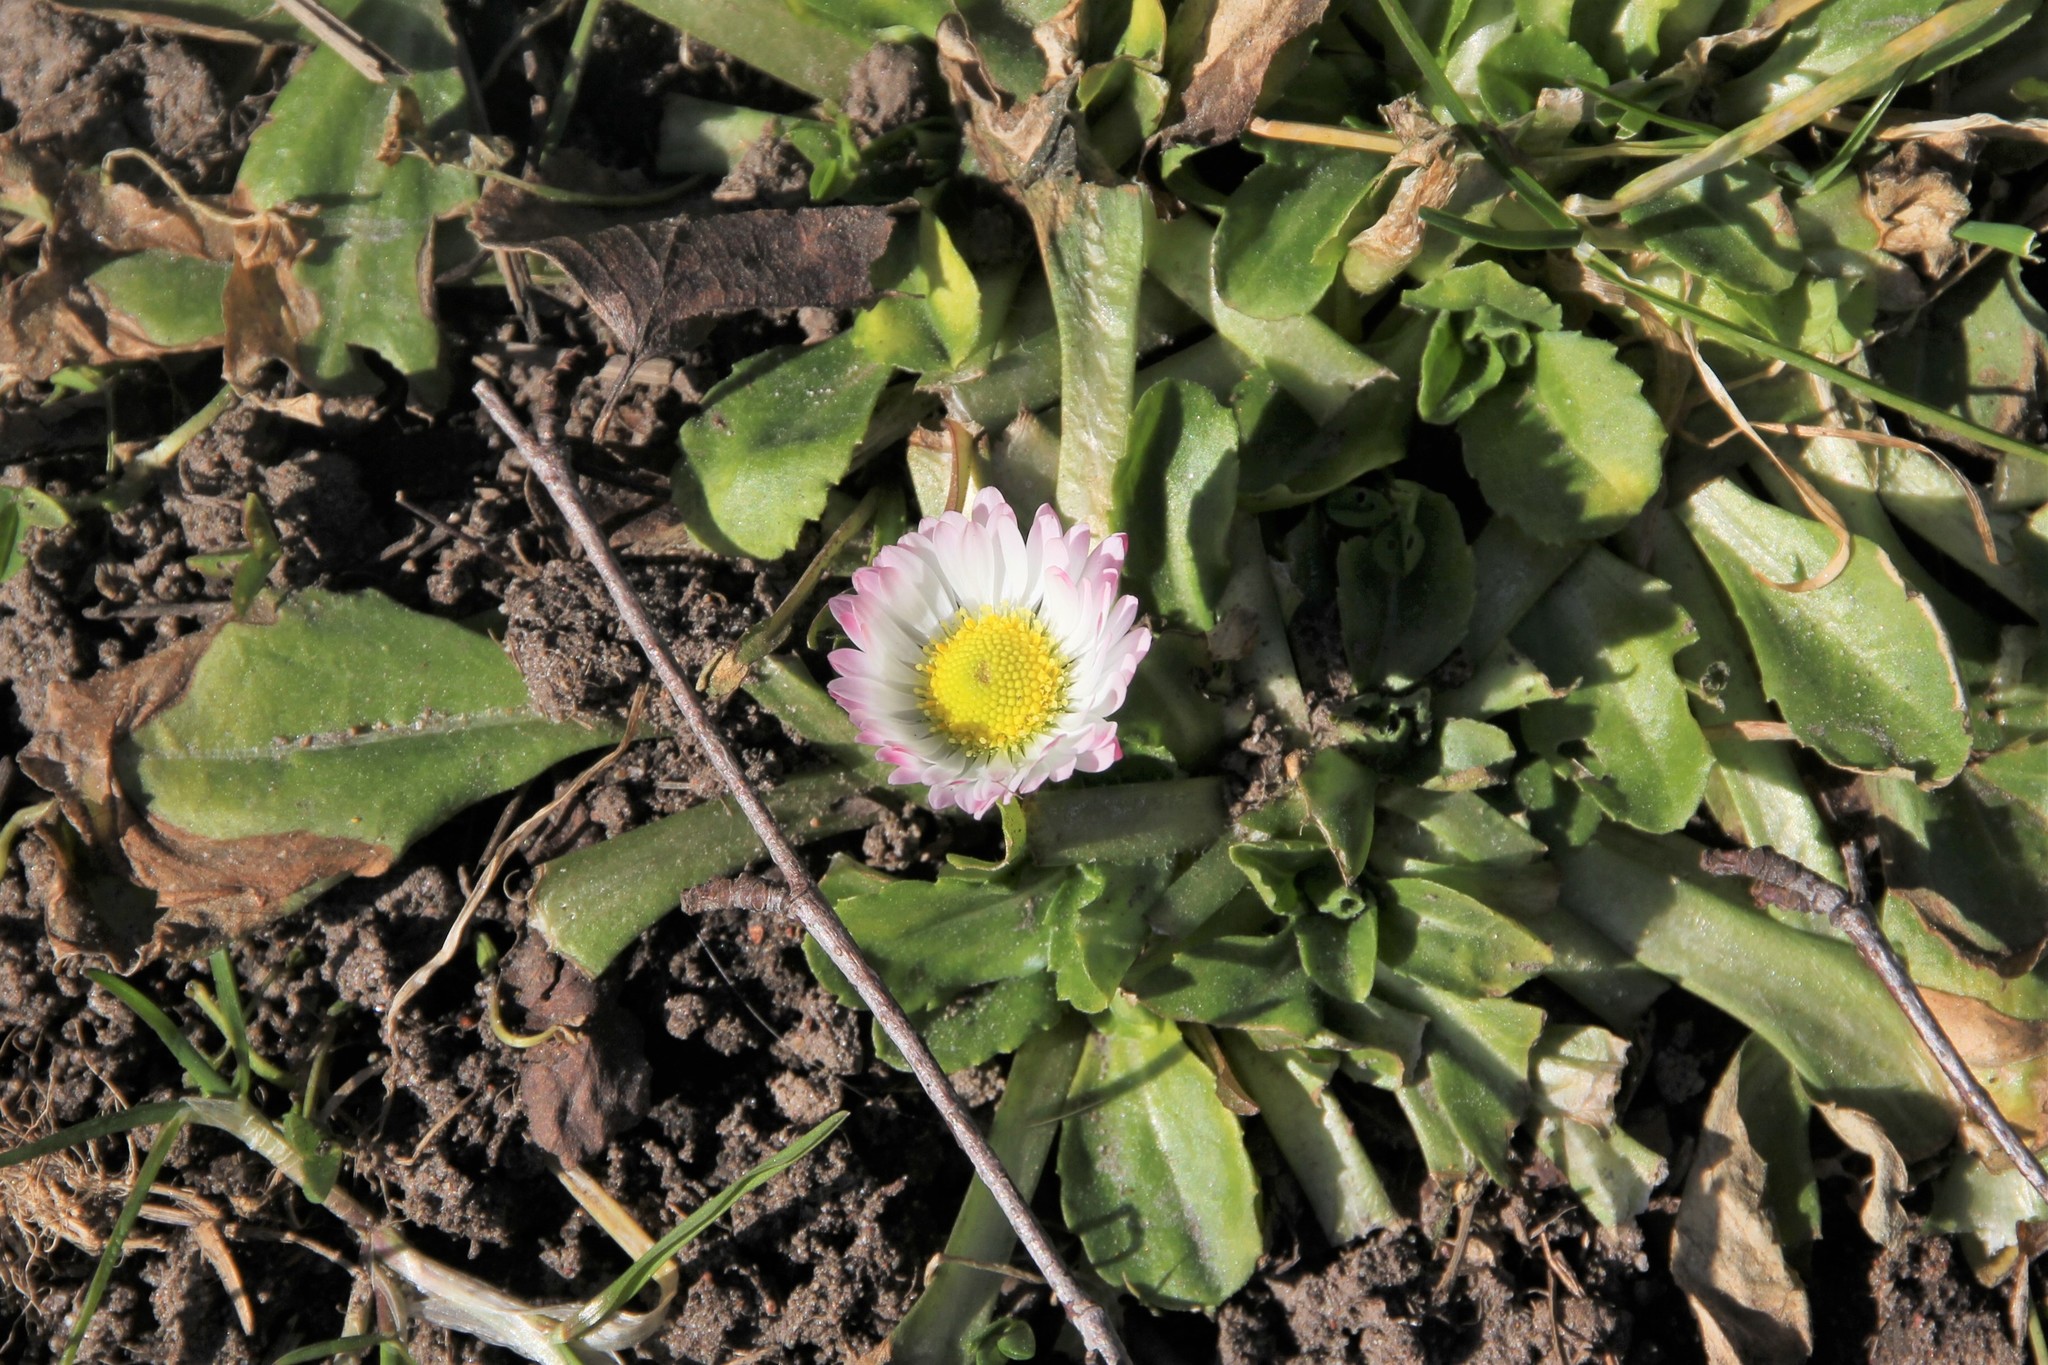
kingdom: Plantae
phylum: Tracheophyta
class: Magnoliopsida
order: Asterales
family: Asteraceae
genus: Bellis
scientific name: Bellis perennis
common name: Lawndaisy
